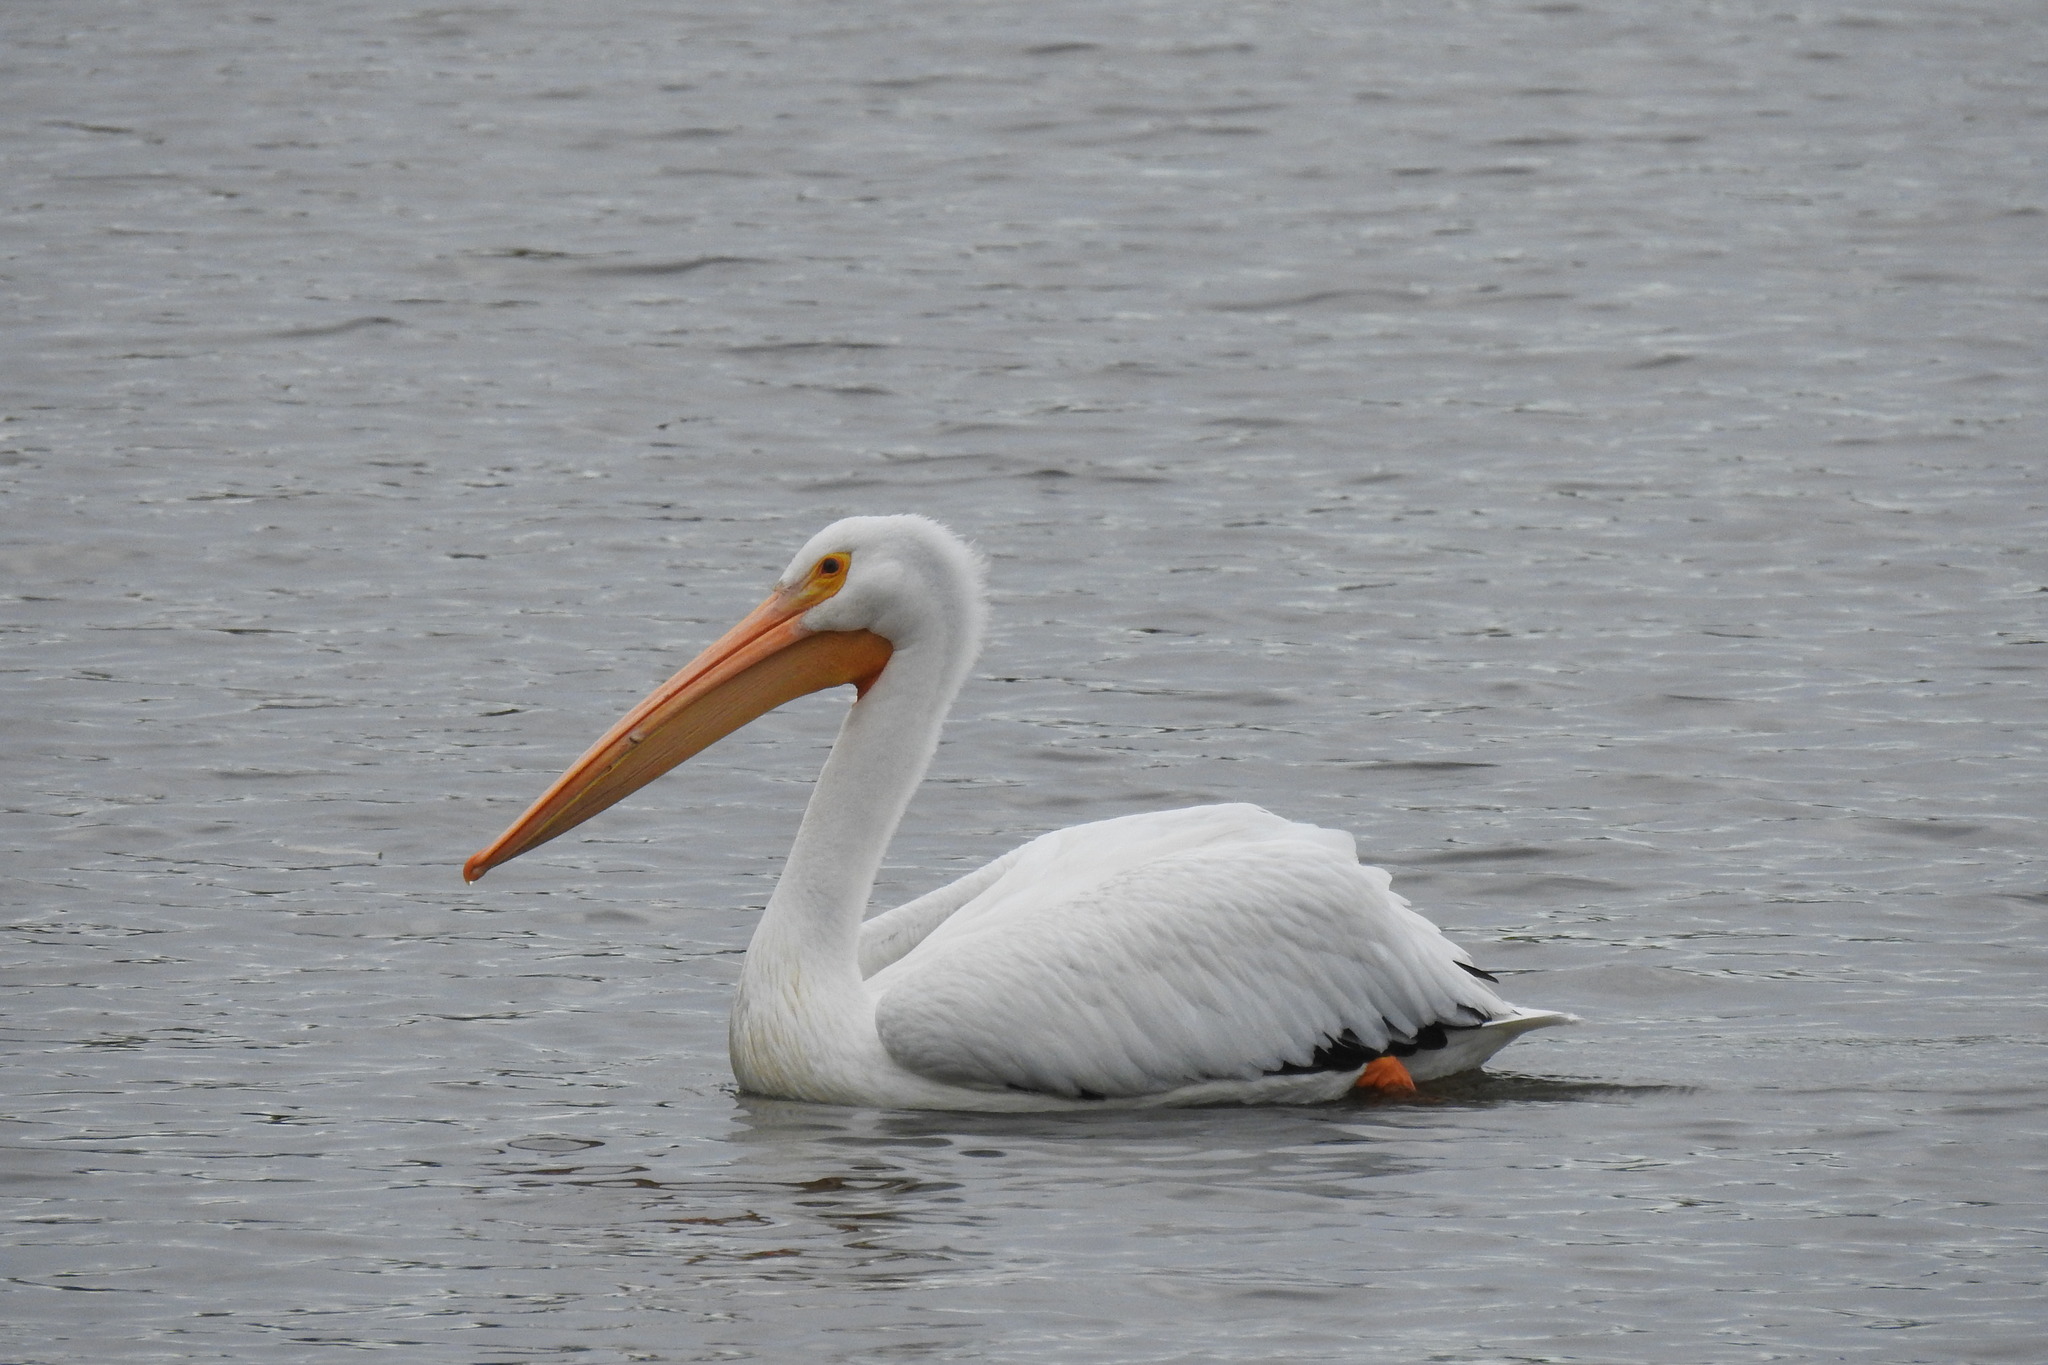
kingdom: Animalia
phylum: Chordata
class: Aves
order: Pelecaniformes
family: Pelecanidae
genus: Pelecanus
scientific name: Pelecanus erythrorhynchos
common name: American white pelican
